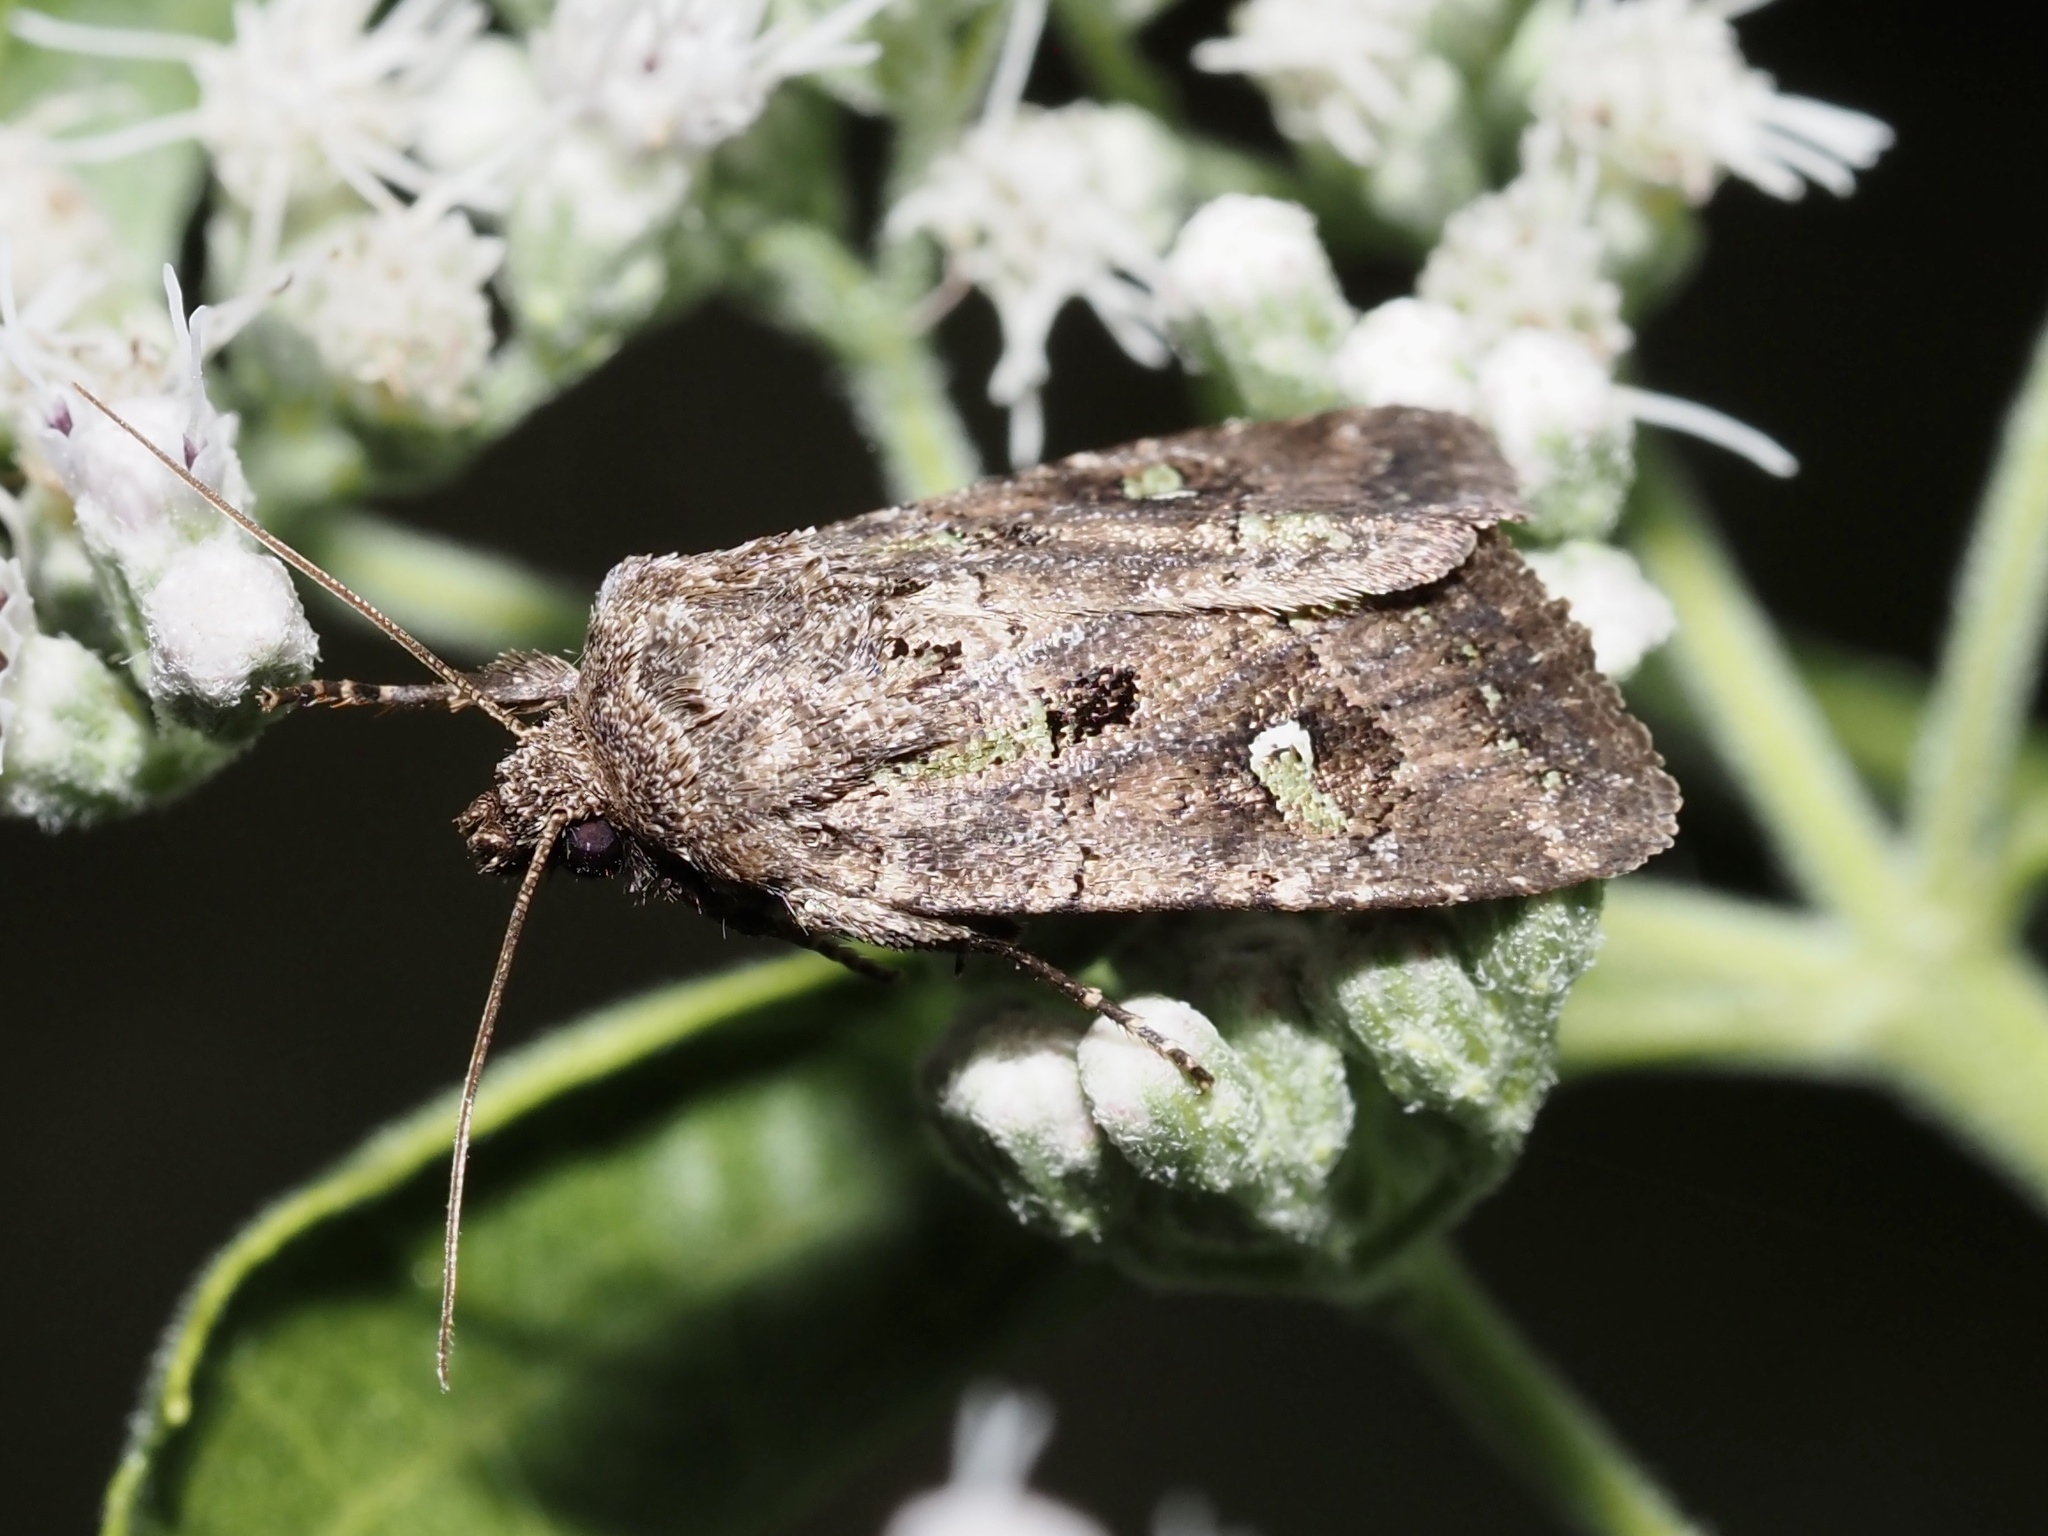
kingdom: Animalia
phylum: Arthropoda
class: Insecta
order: Lepidoptera
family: Noctuidae
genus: Lacinipolia
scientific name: Lacinipolia renigera
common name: Kidney-spotted minor
